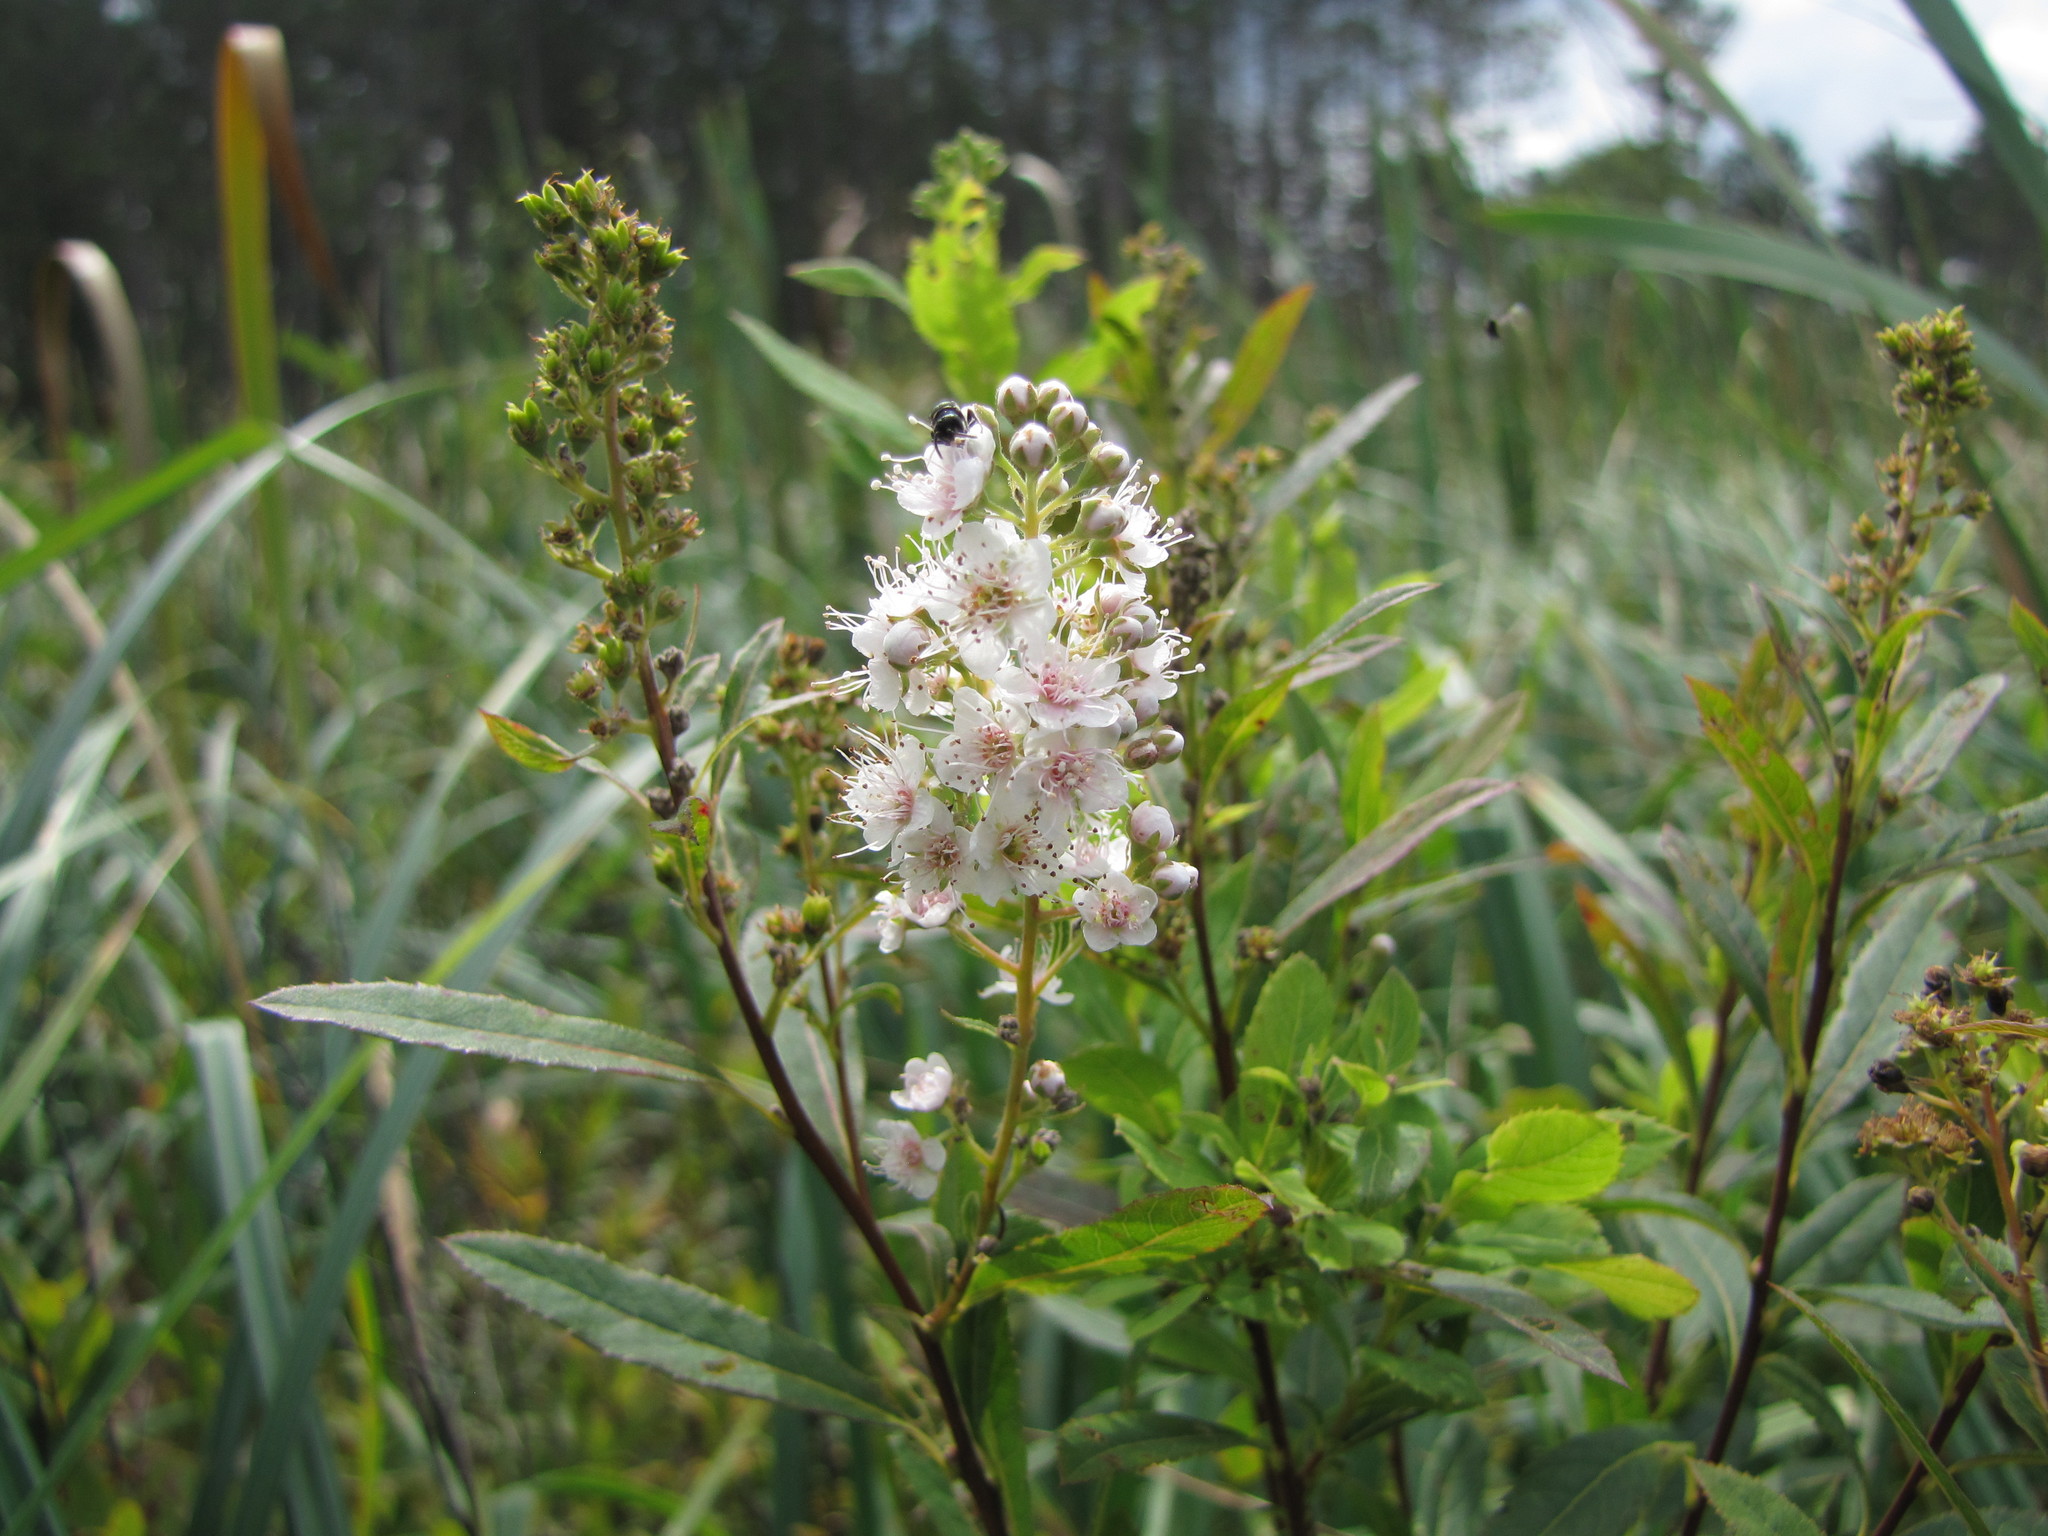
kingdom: Plantae
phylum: Tracheophyta
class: Magnoliopsida
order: Rosales
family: Rosaceae
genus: Spiraea
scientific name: Spiraea alba
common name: Pale bridewort
